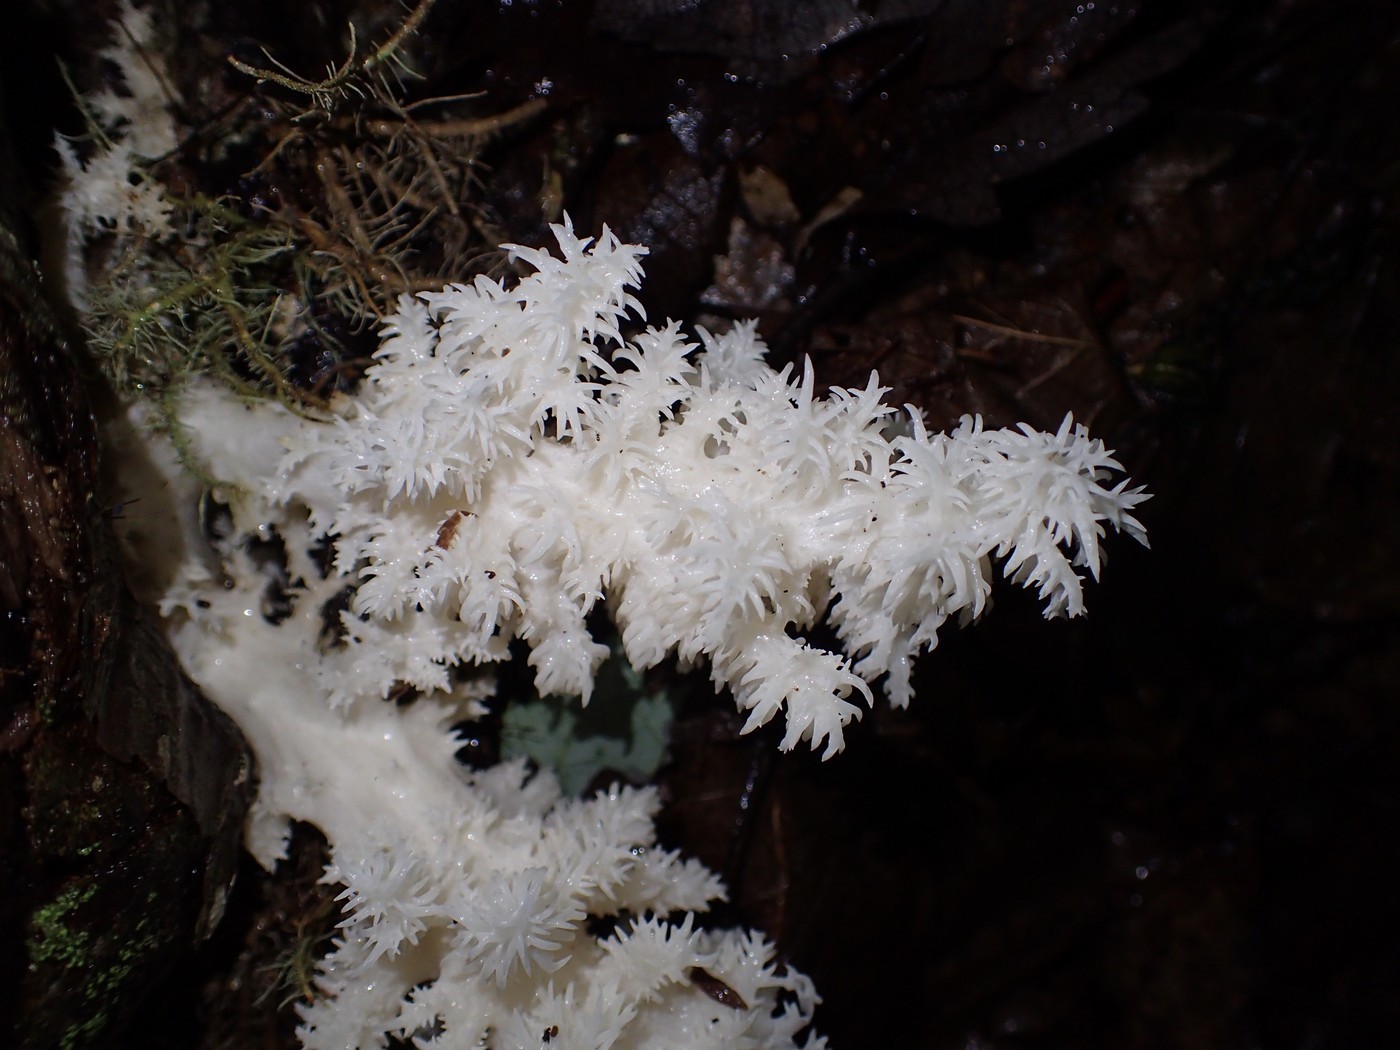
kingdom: Fungi
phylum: Basidiomycota
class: Agaricomycetes
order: Russulales
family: Hericiaceae
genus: Hericium
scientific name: Hericium coralloides
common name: Coral tooth
